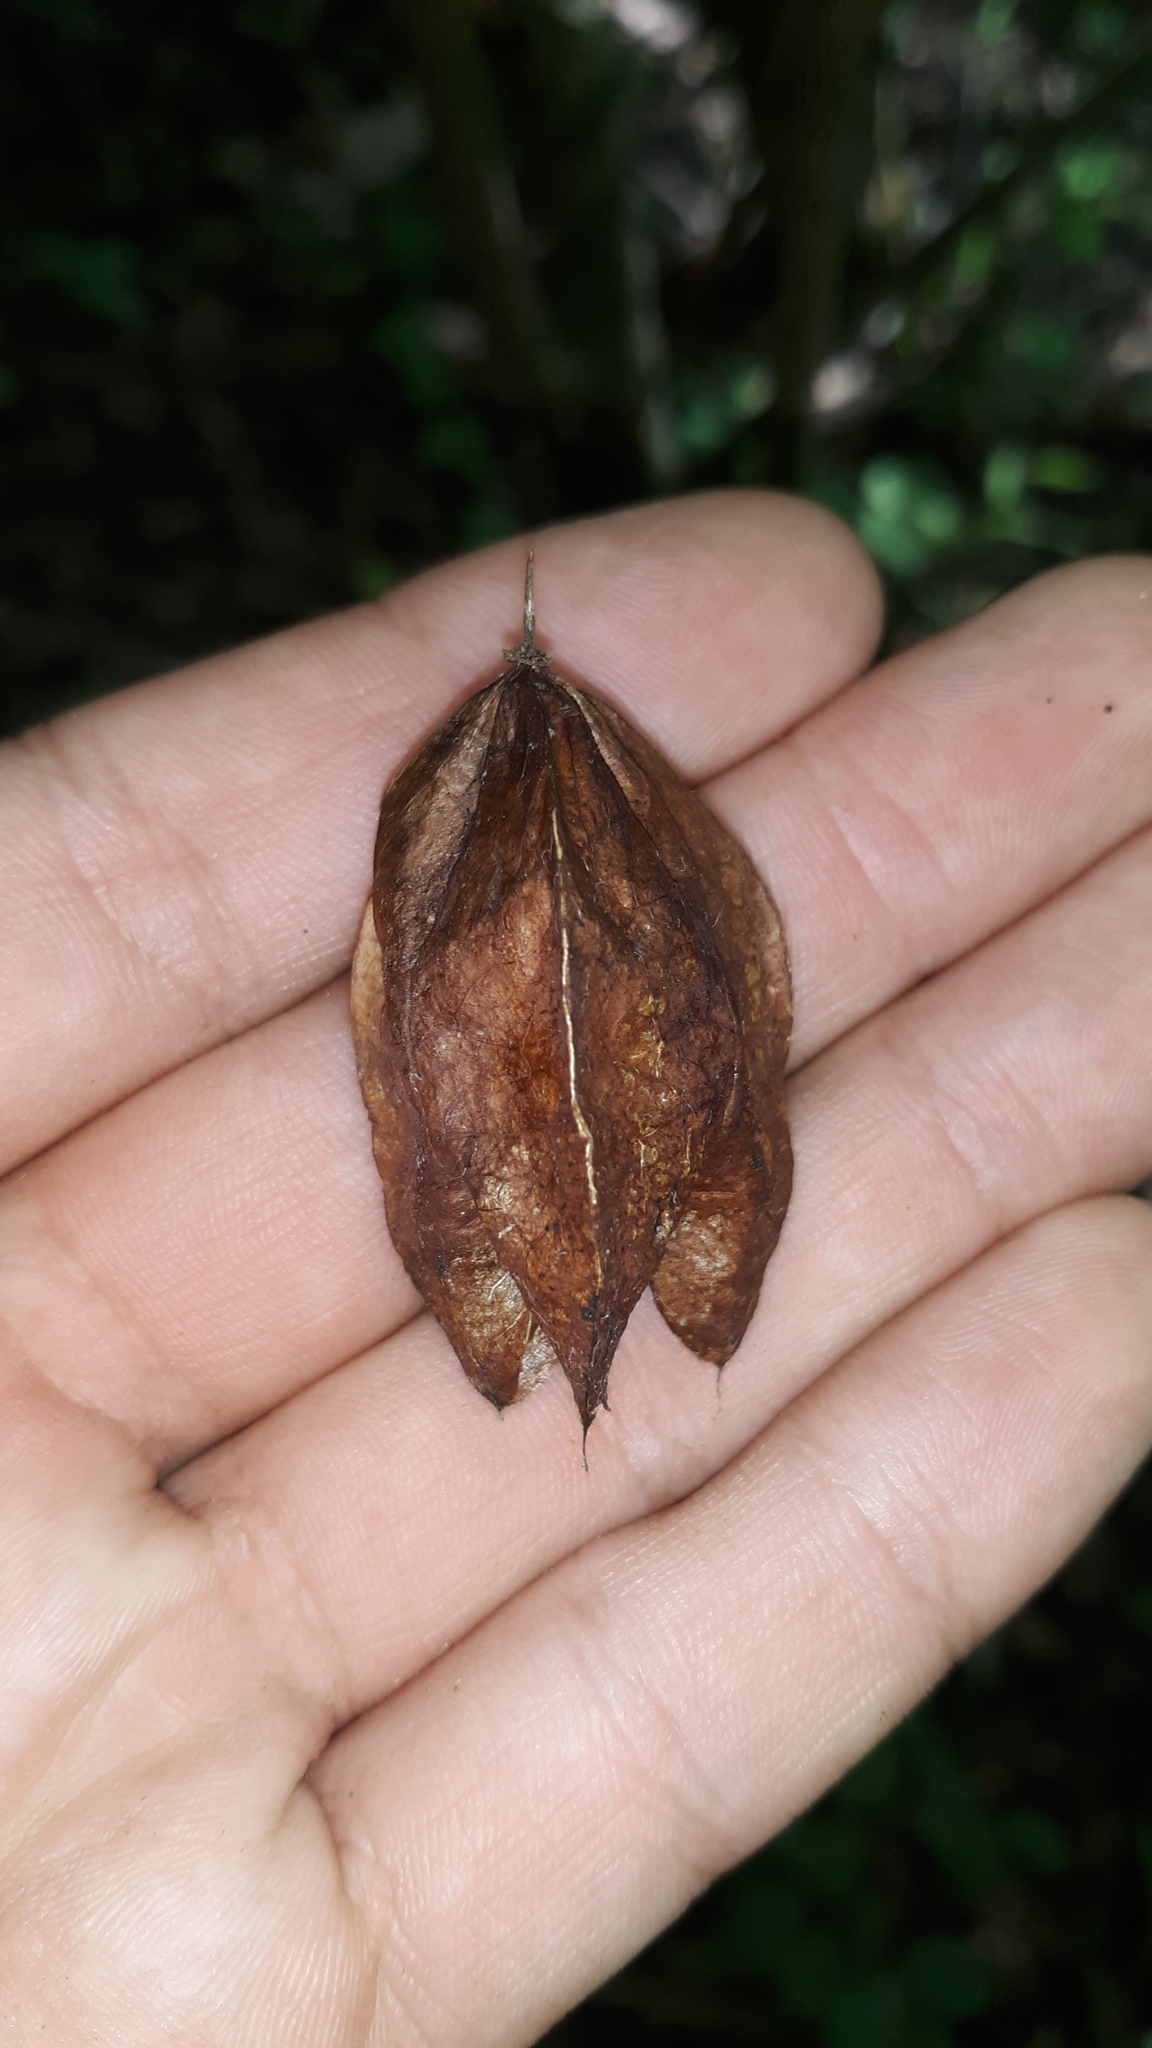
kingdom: Plantae
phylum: Tracheophyta
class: Magnoliopsida
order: Crossosomatales
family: Staphyleaceae
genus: Staphylea
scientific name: Staphylea trifolia
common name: American bladdernut
